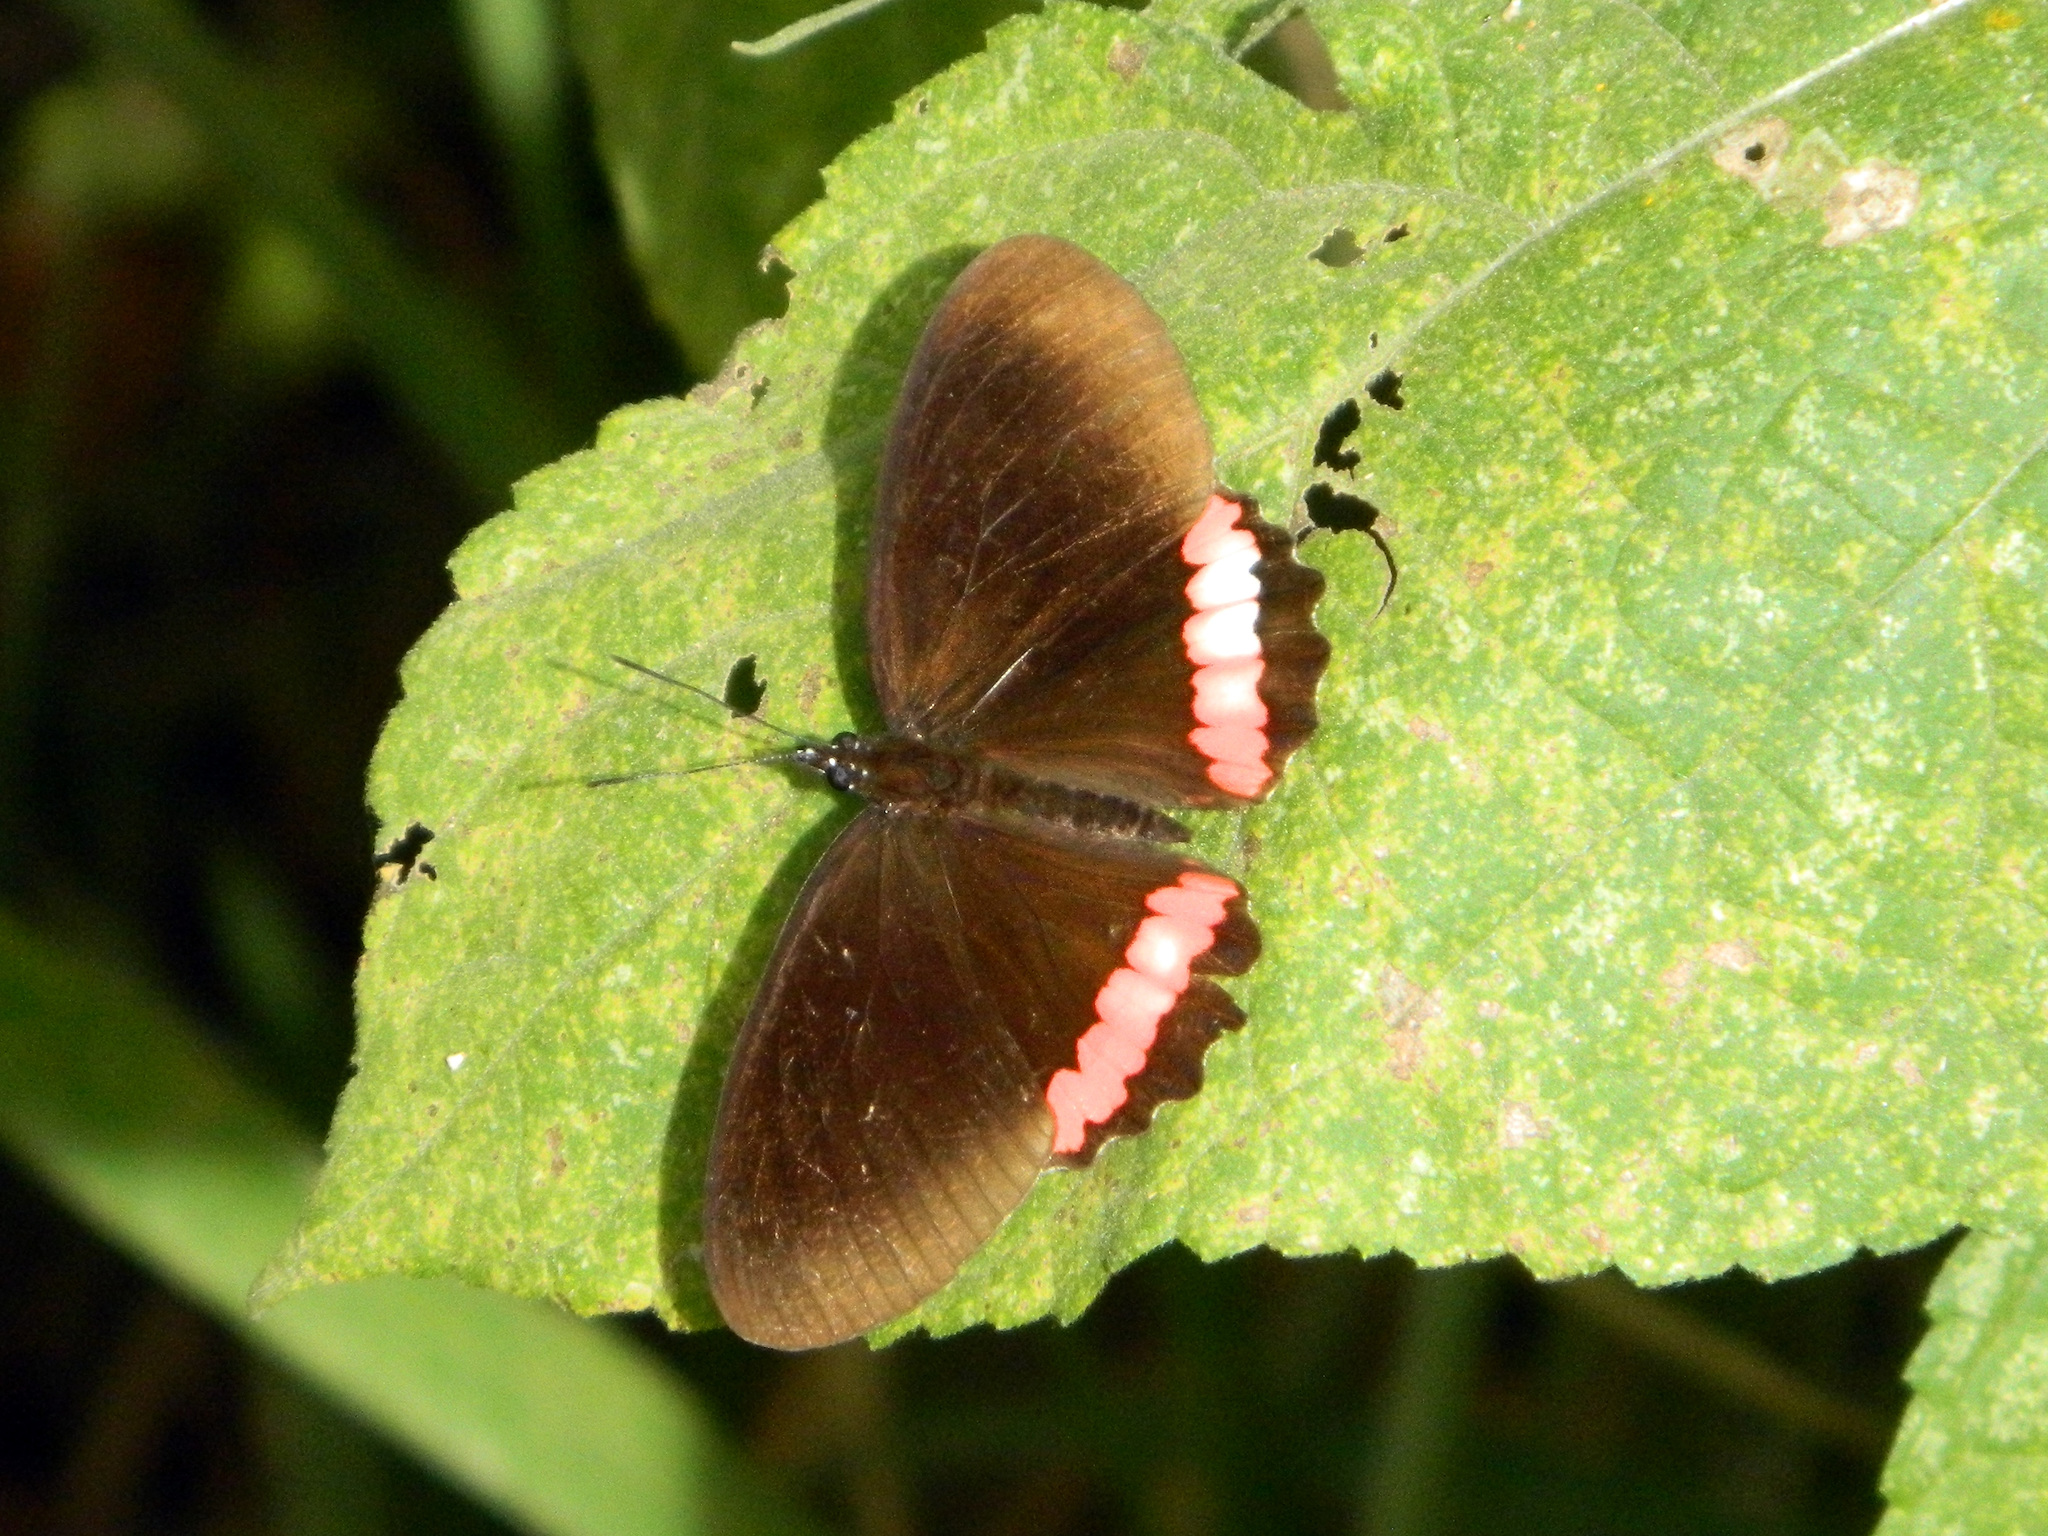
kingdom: Animalia
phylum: Arthropoda
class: Insecta
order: Lepidoptera
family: Nymphalidae
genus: Biblis
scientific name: Biblis aganisa
